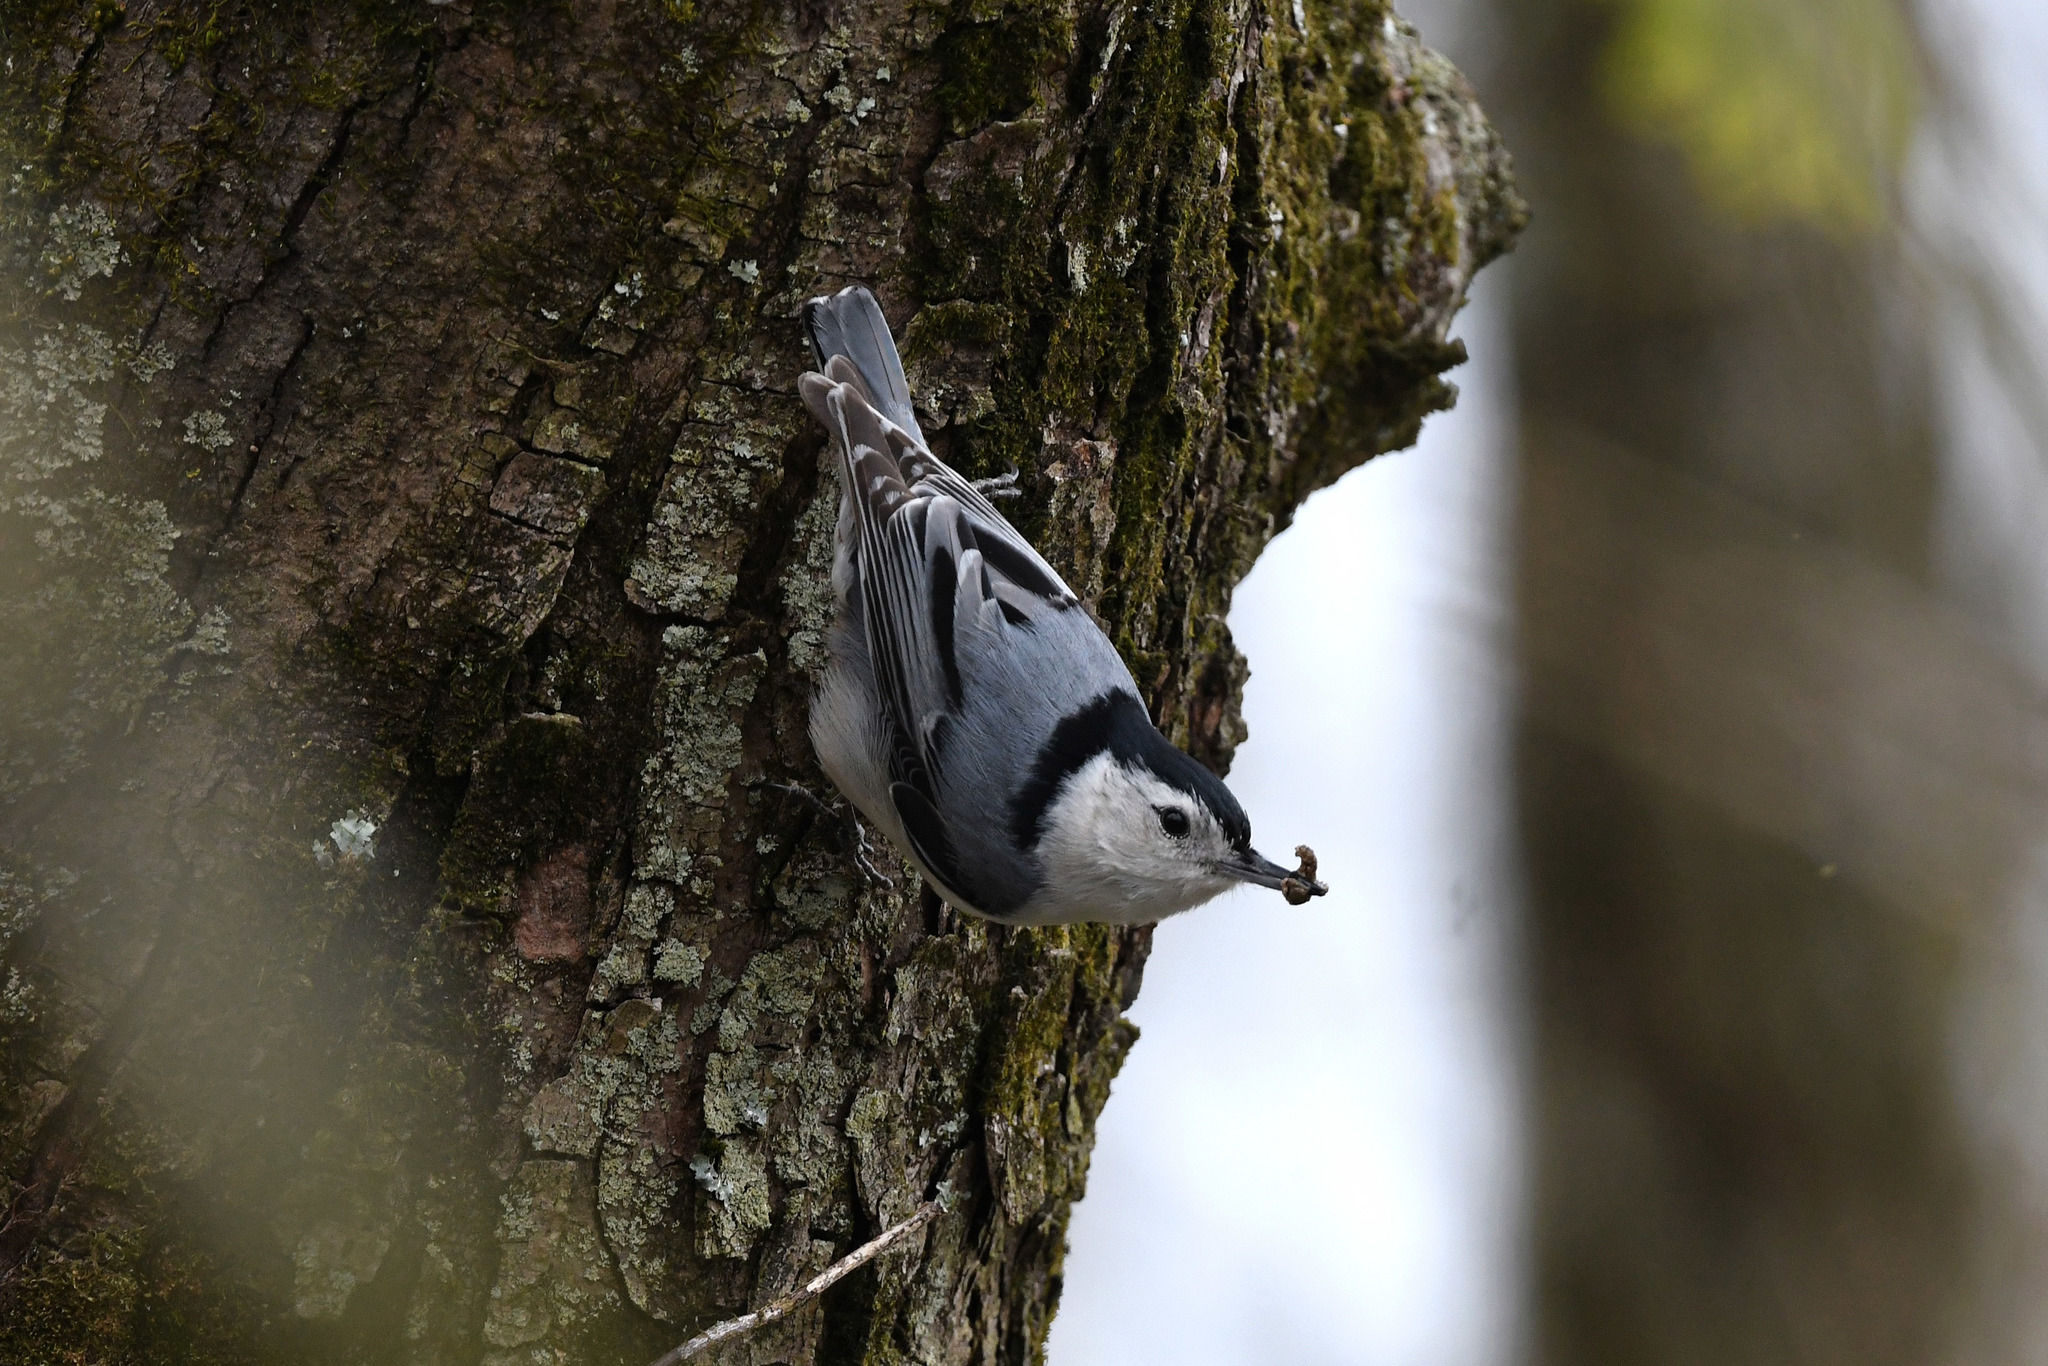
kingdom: Animalia
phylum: Chordata
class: Aves
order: Passeriformes
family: Sittidae
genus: Sitta
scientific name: Sitta carolinensis
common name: White-breasted nuthatch
